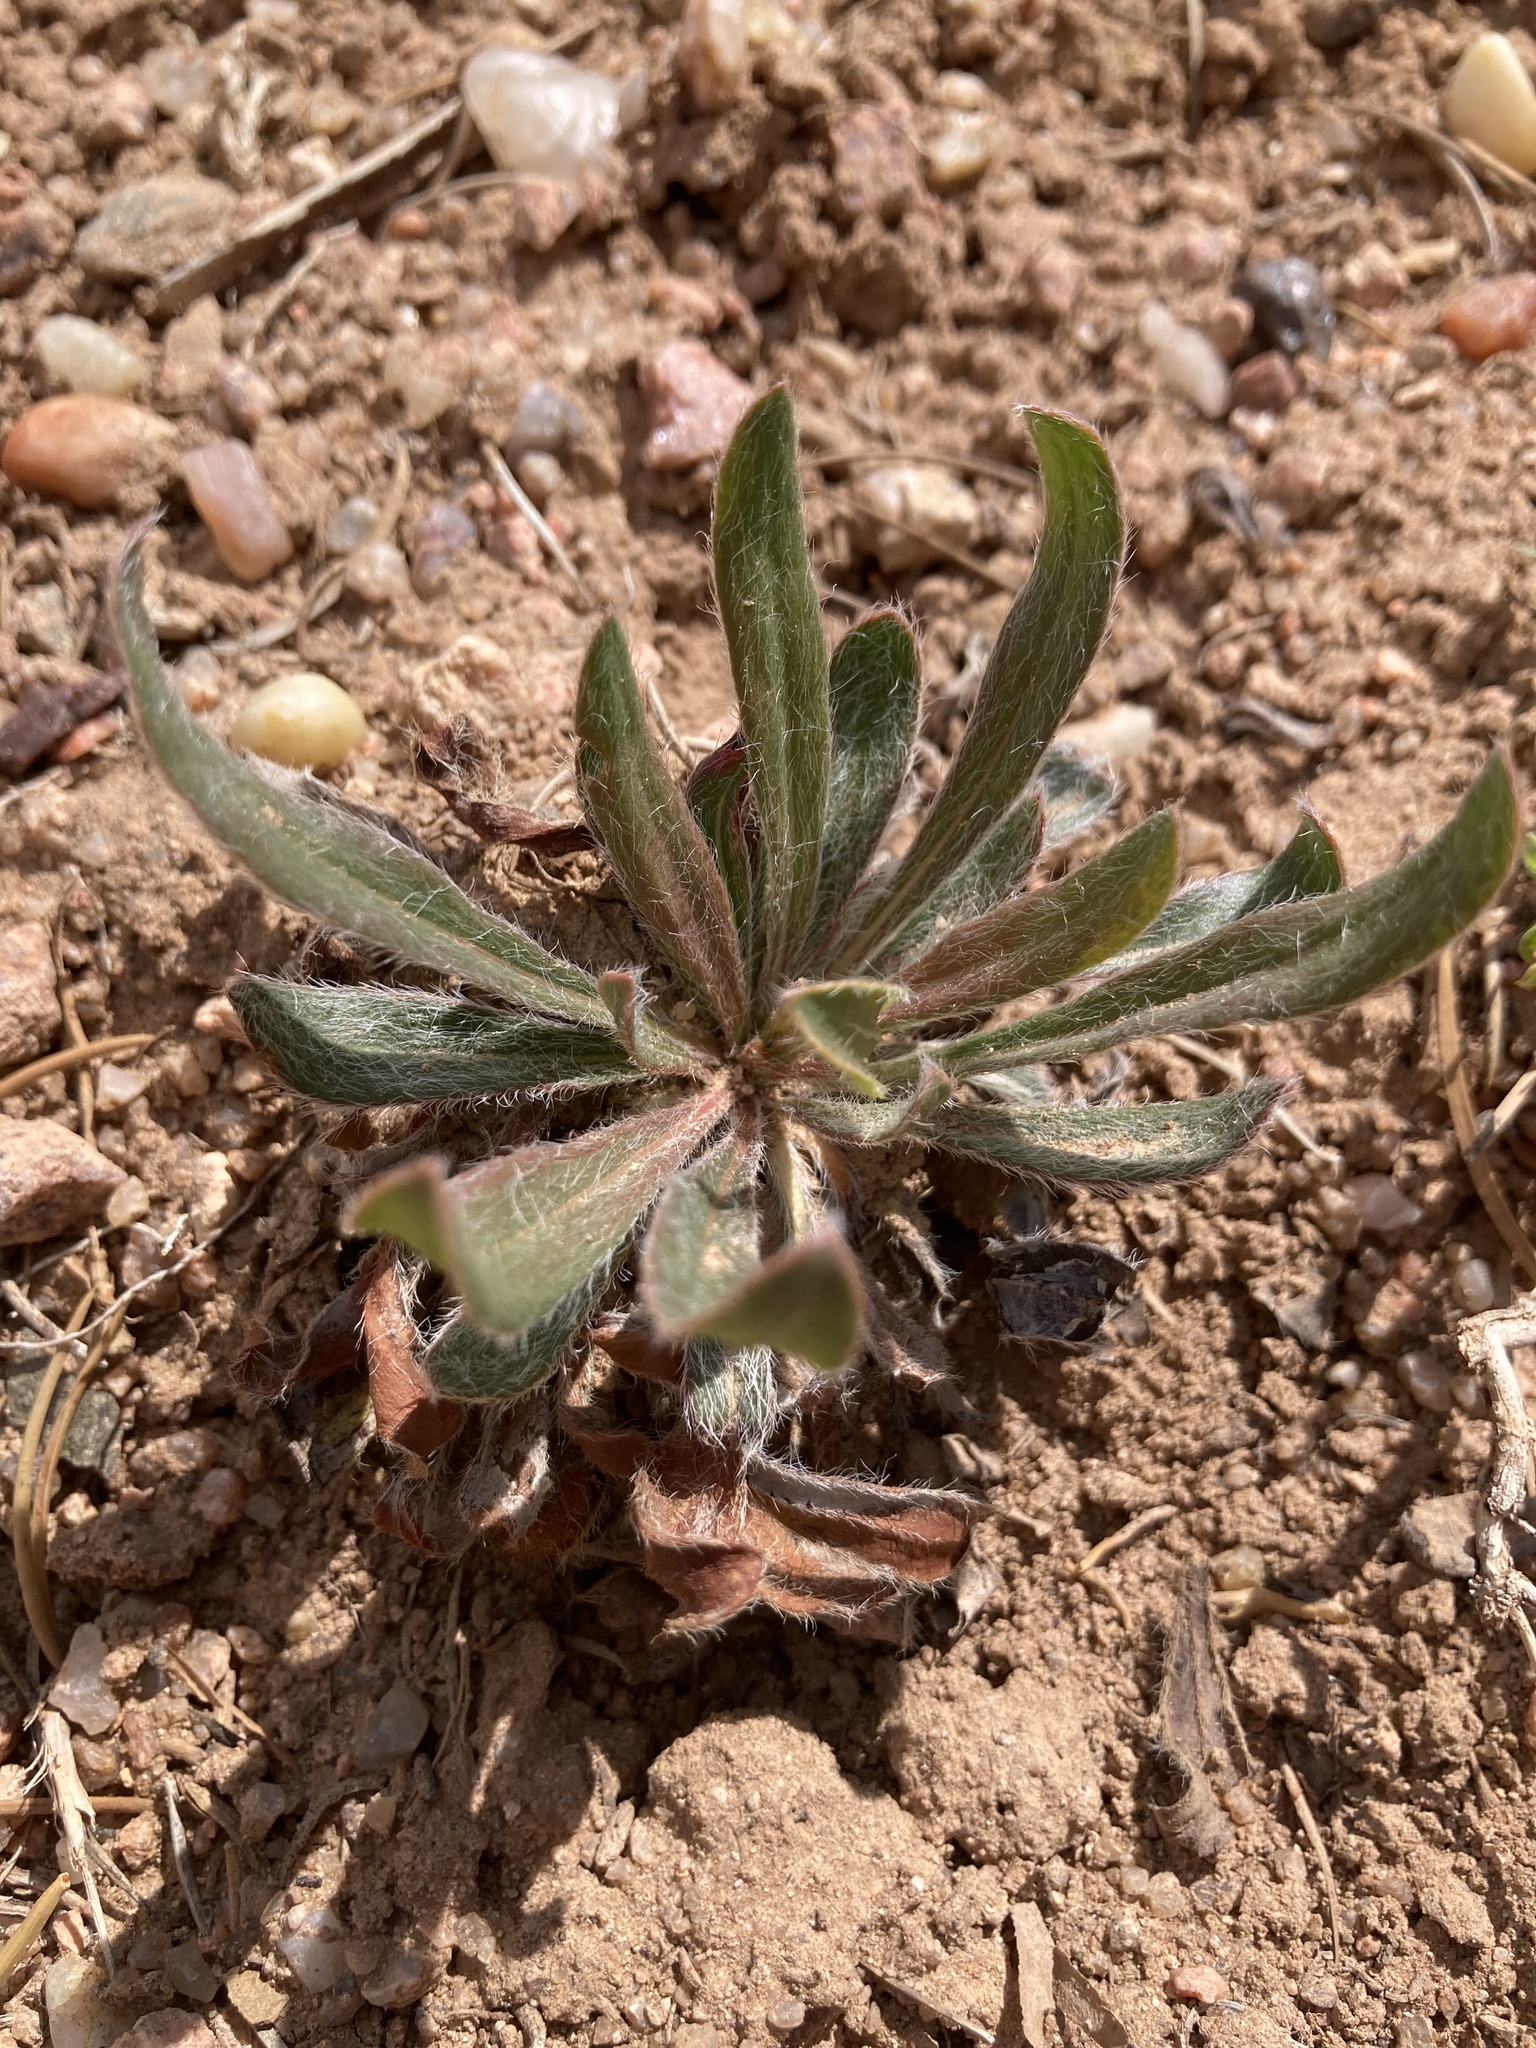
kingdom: Plantae
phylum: Tracheophyta
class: Magnoliopsida
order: Caryophyllales
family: Polygonaceae
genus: Eriogonum
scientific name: Eriogonum alatum
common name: Winged eriogonum
